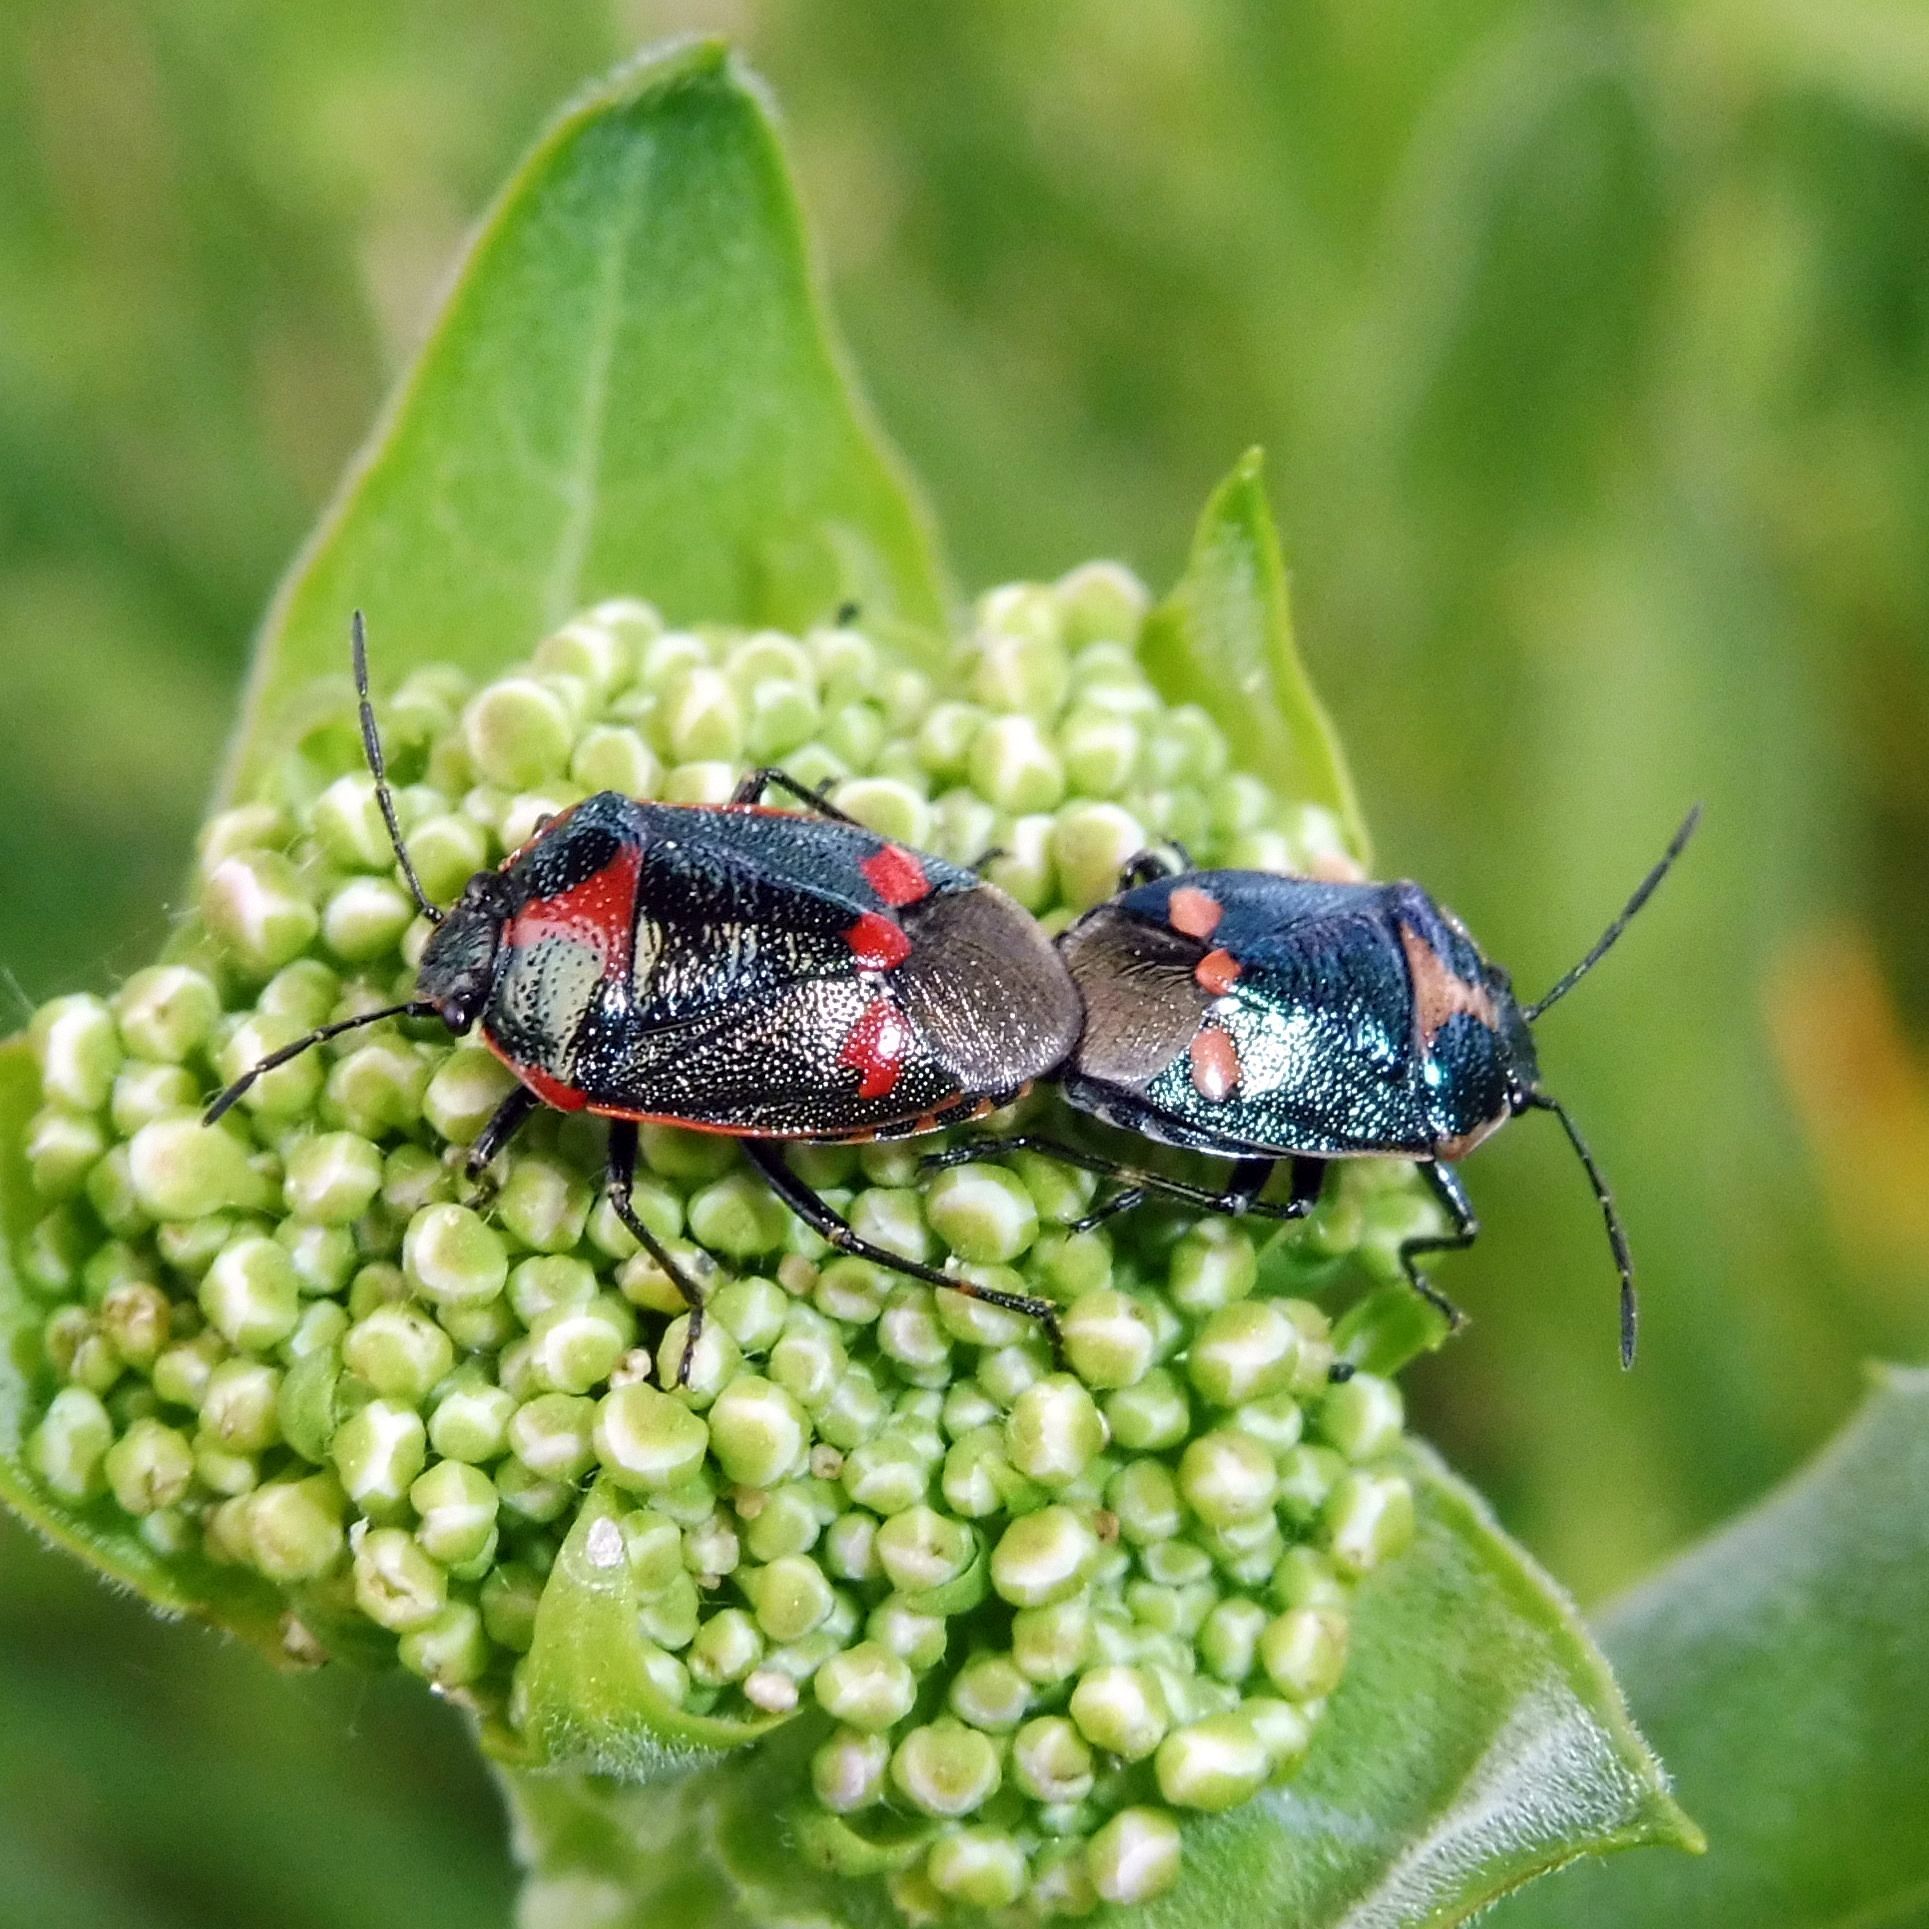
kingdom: Animalia
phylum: Arthropoda
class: Insecta
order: Hemiptera
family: Pentatomidae
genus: Eurydema
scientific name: Eurydema oleracea
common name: Cabbage bug
